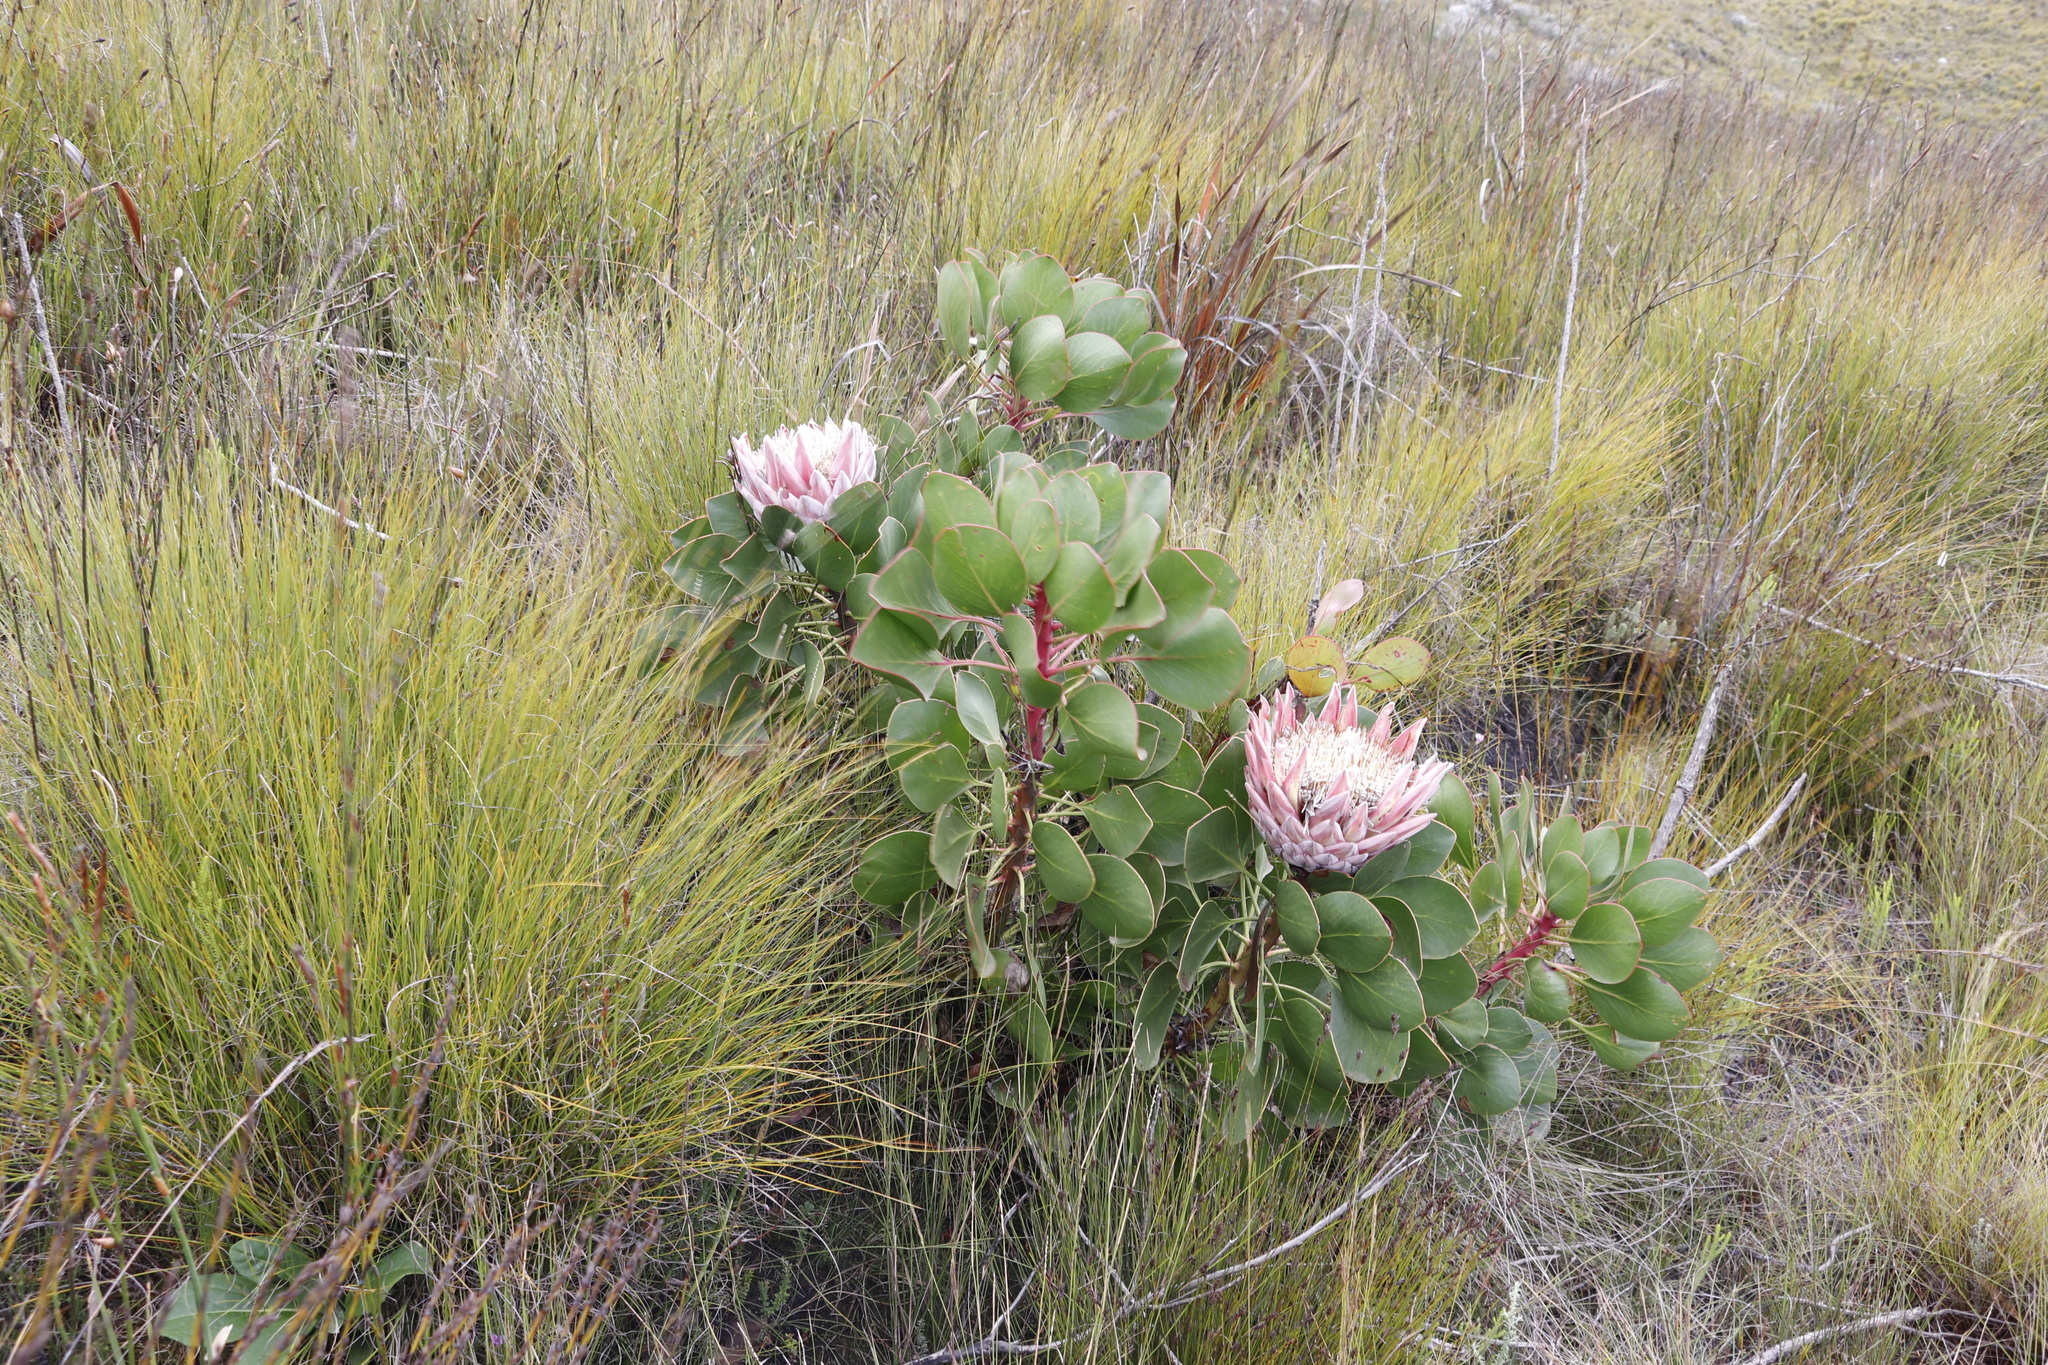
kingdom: Plantae
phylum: Tracheophyta
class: Magnoliopsida
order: Proteales
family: Proteaceae
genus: Protea
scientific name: Protea cynaroides
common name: King protea
